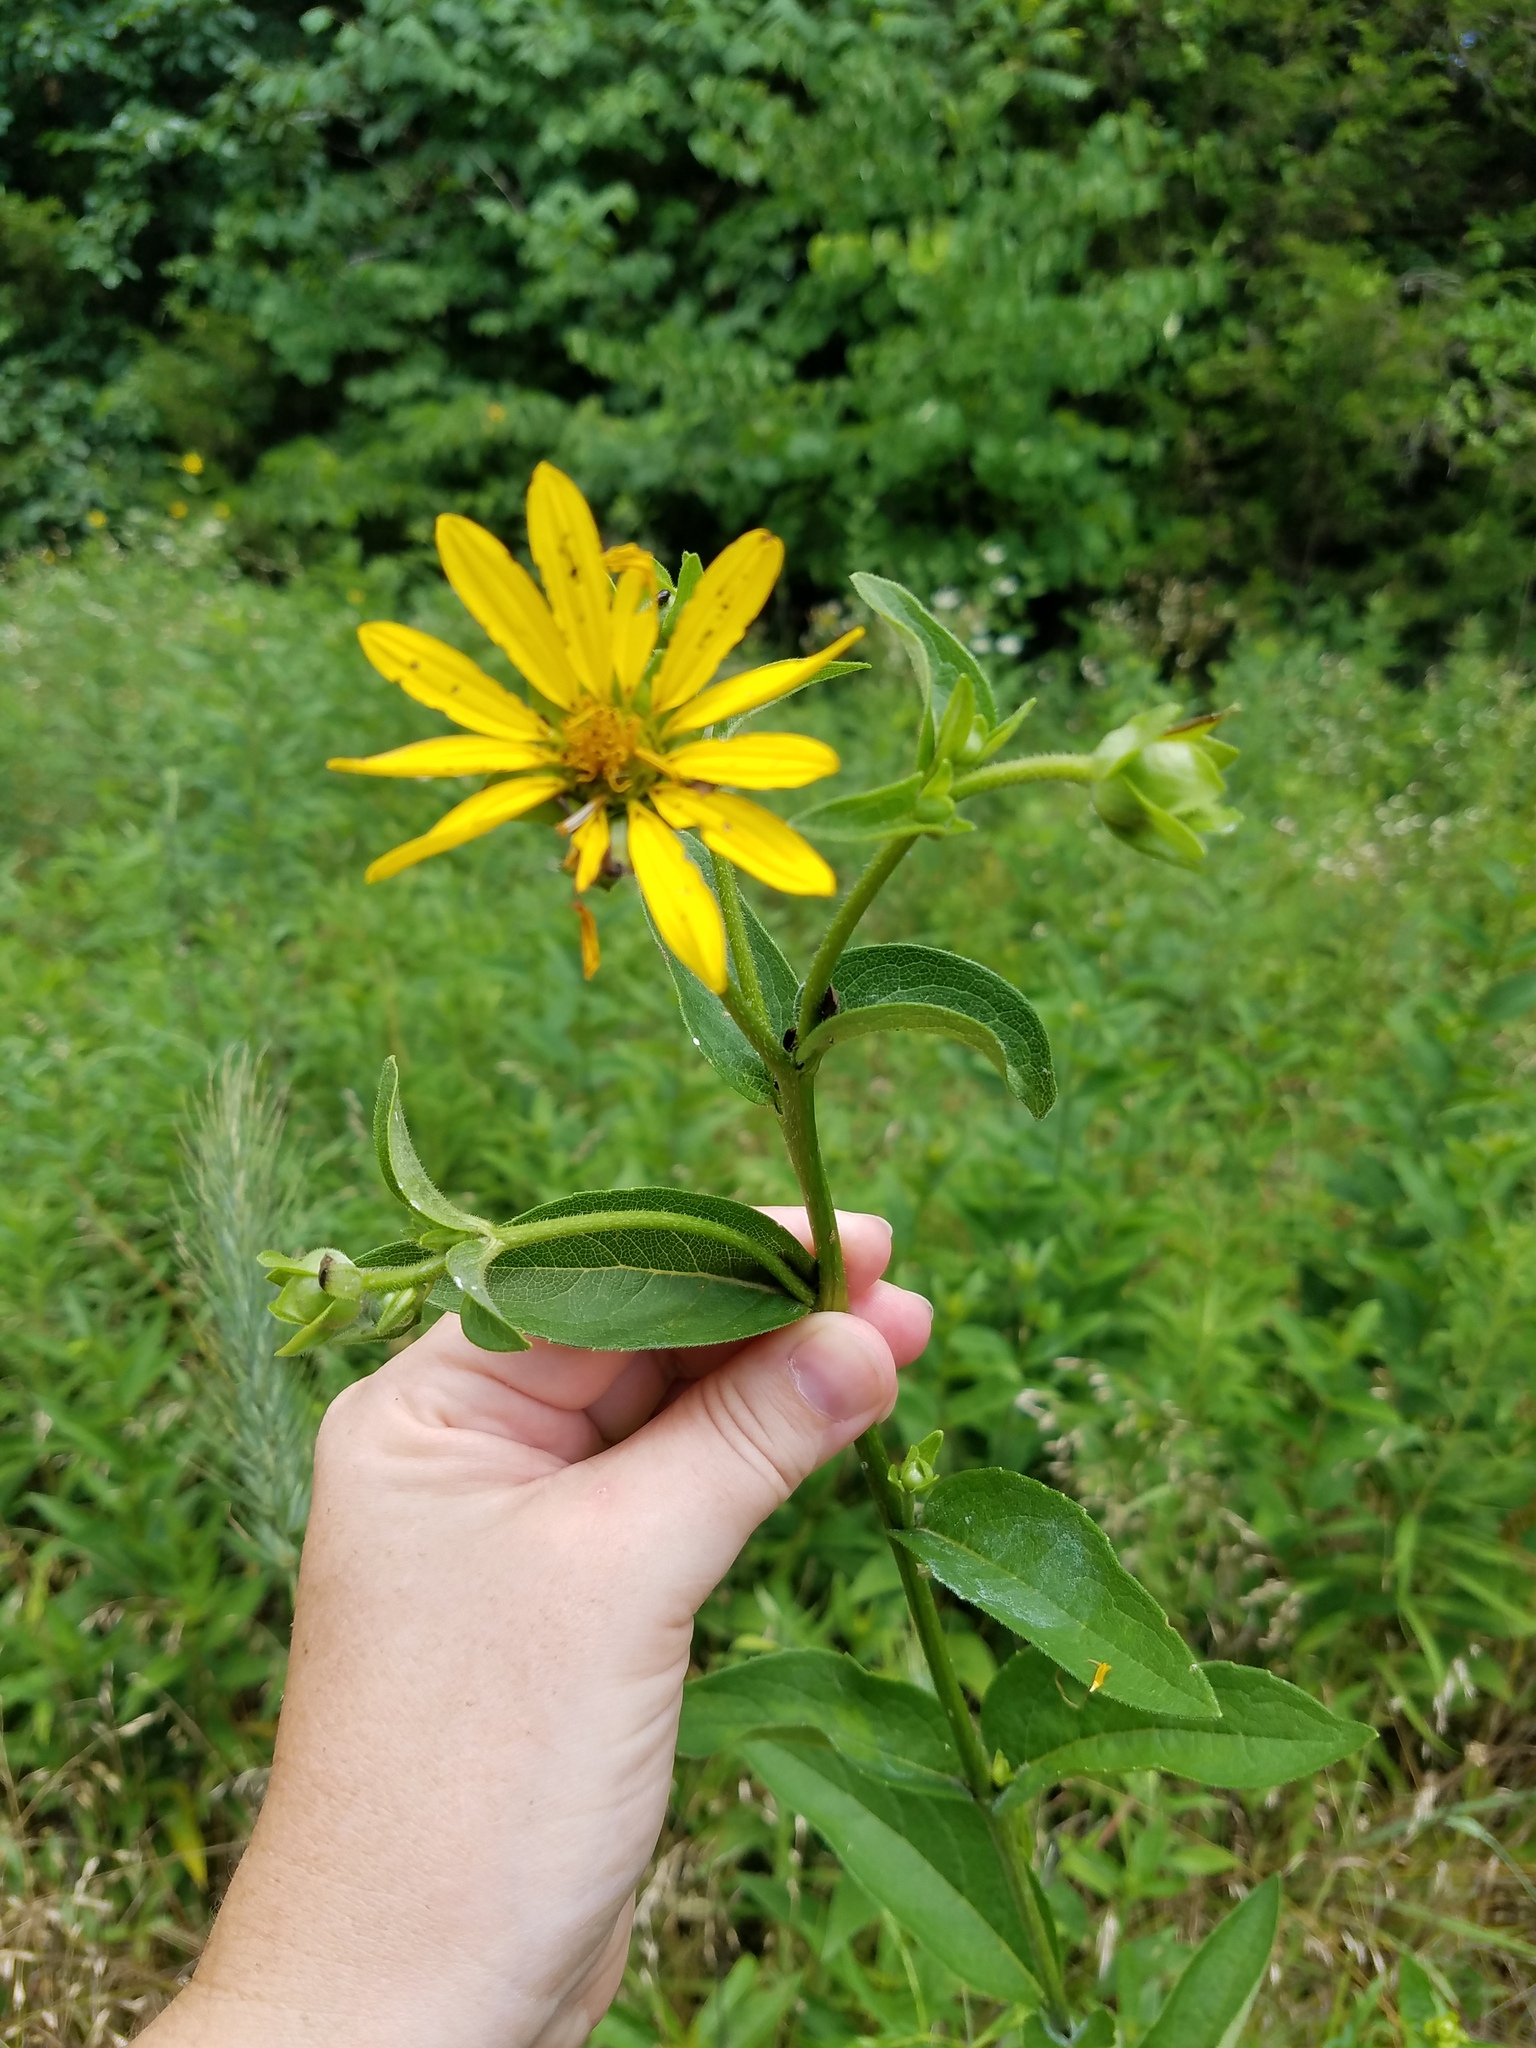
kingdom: Plantae
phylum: Tracheophyta
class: Magnoliopsida
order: Asterales
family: Asteraceae
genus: Silphium
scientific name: Silphium asteriscus
